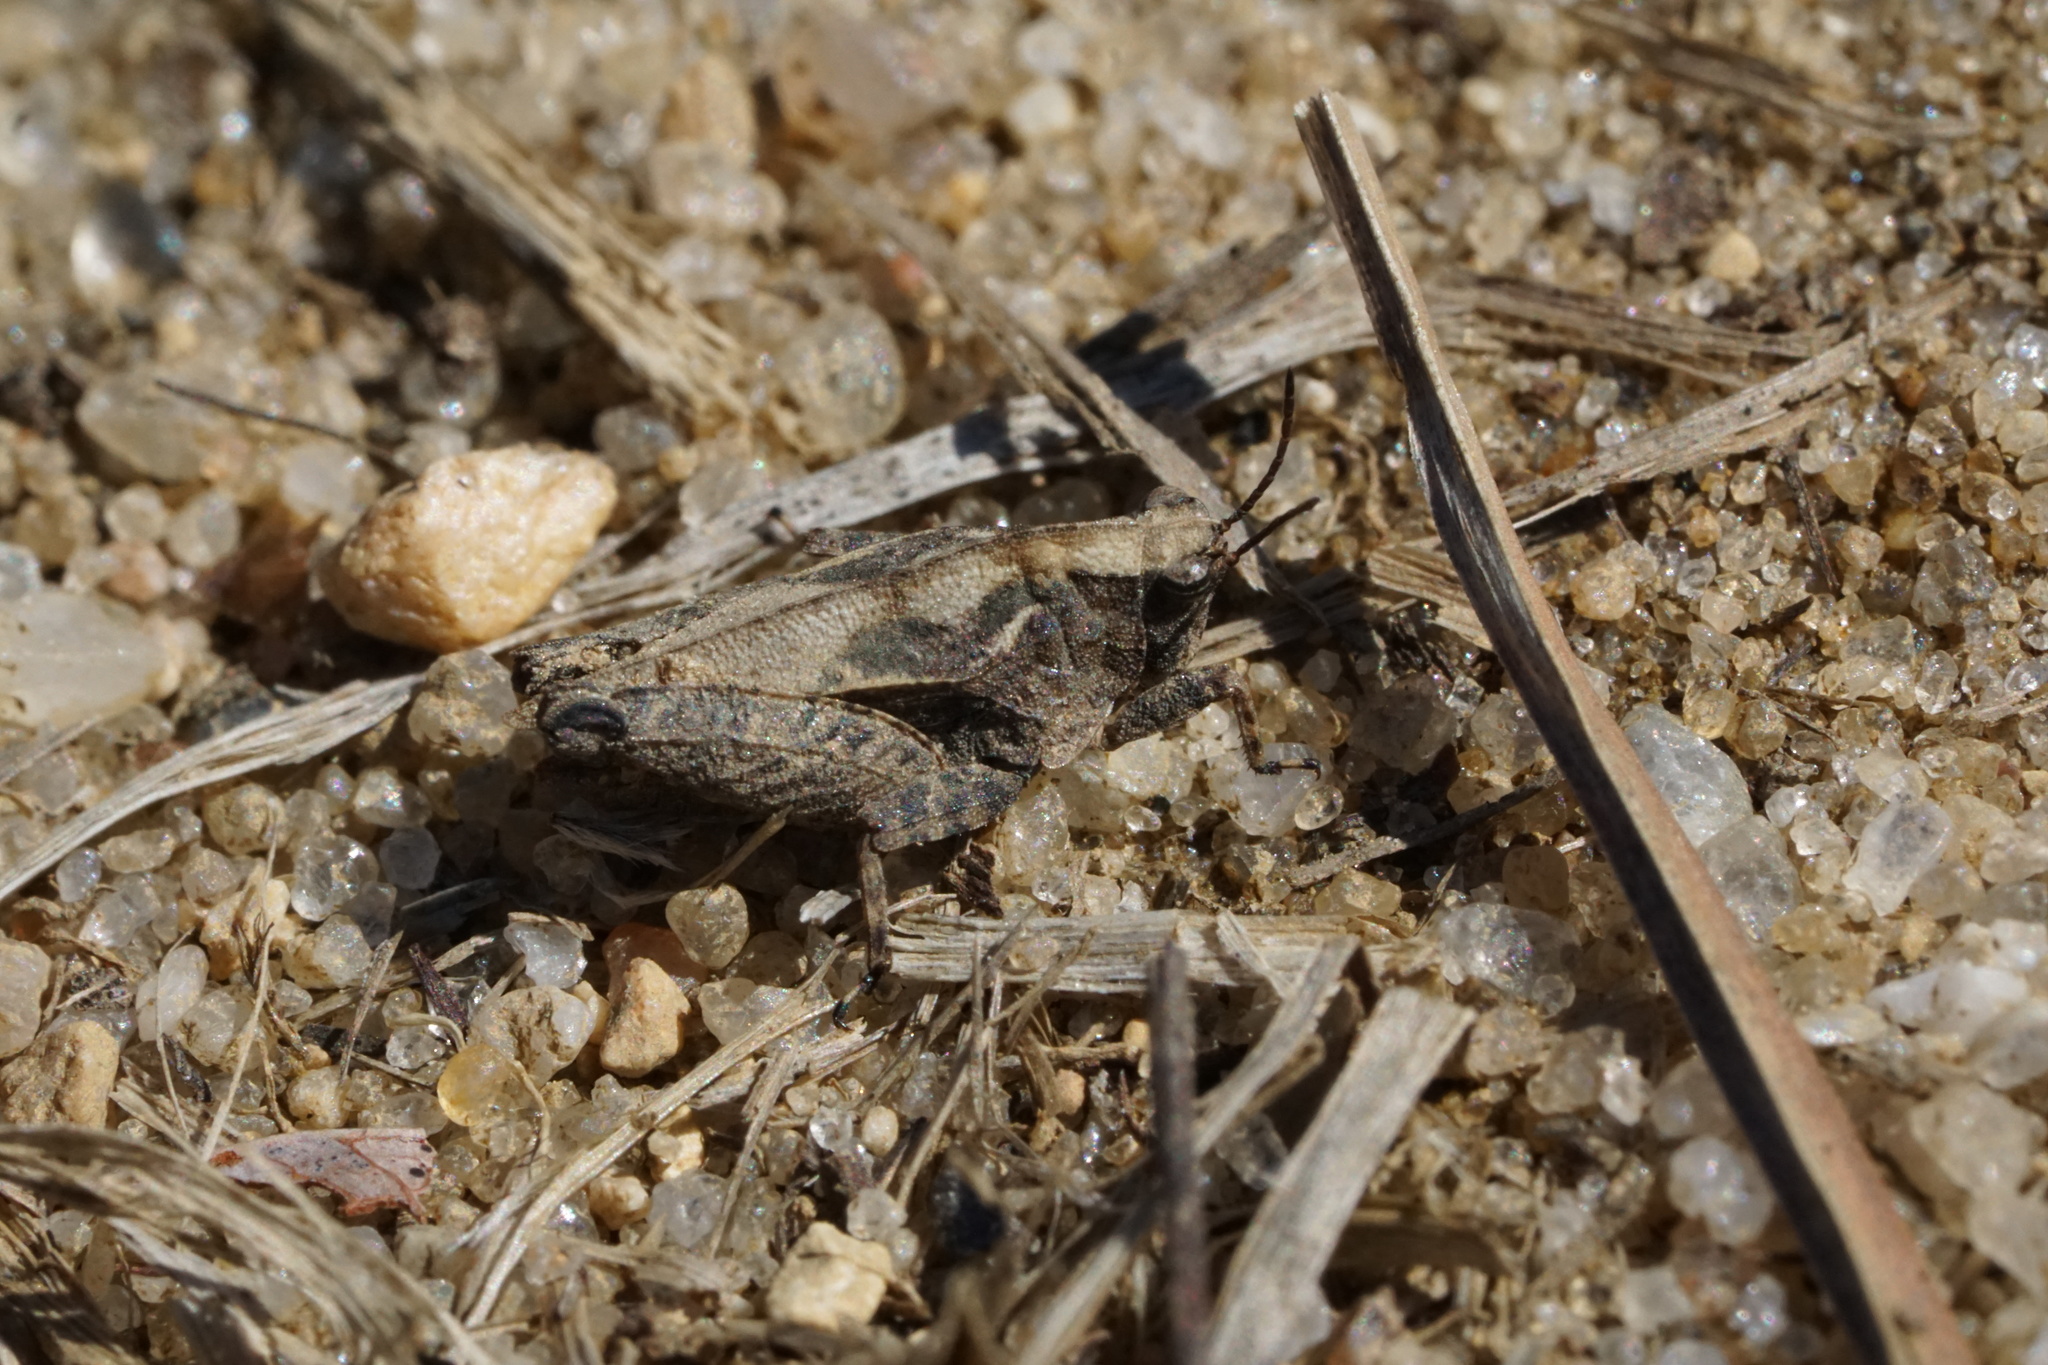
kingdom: Animalia
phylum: Arthropoda
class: Insecta
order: Orthoptera
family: Tetrigidae
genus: Nomotettix
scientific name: Nomotettix cristatus
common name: Crested grouse locust
